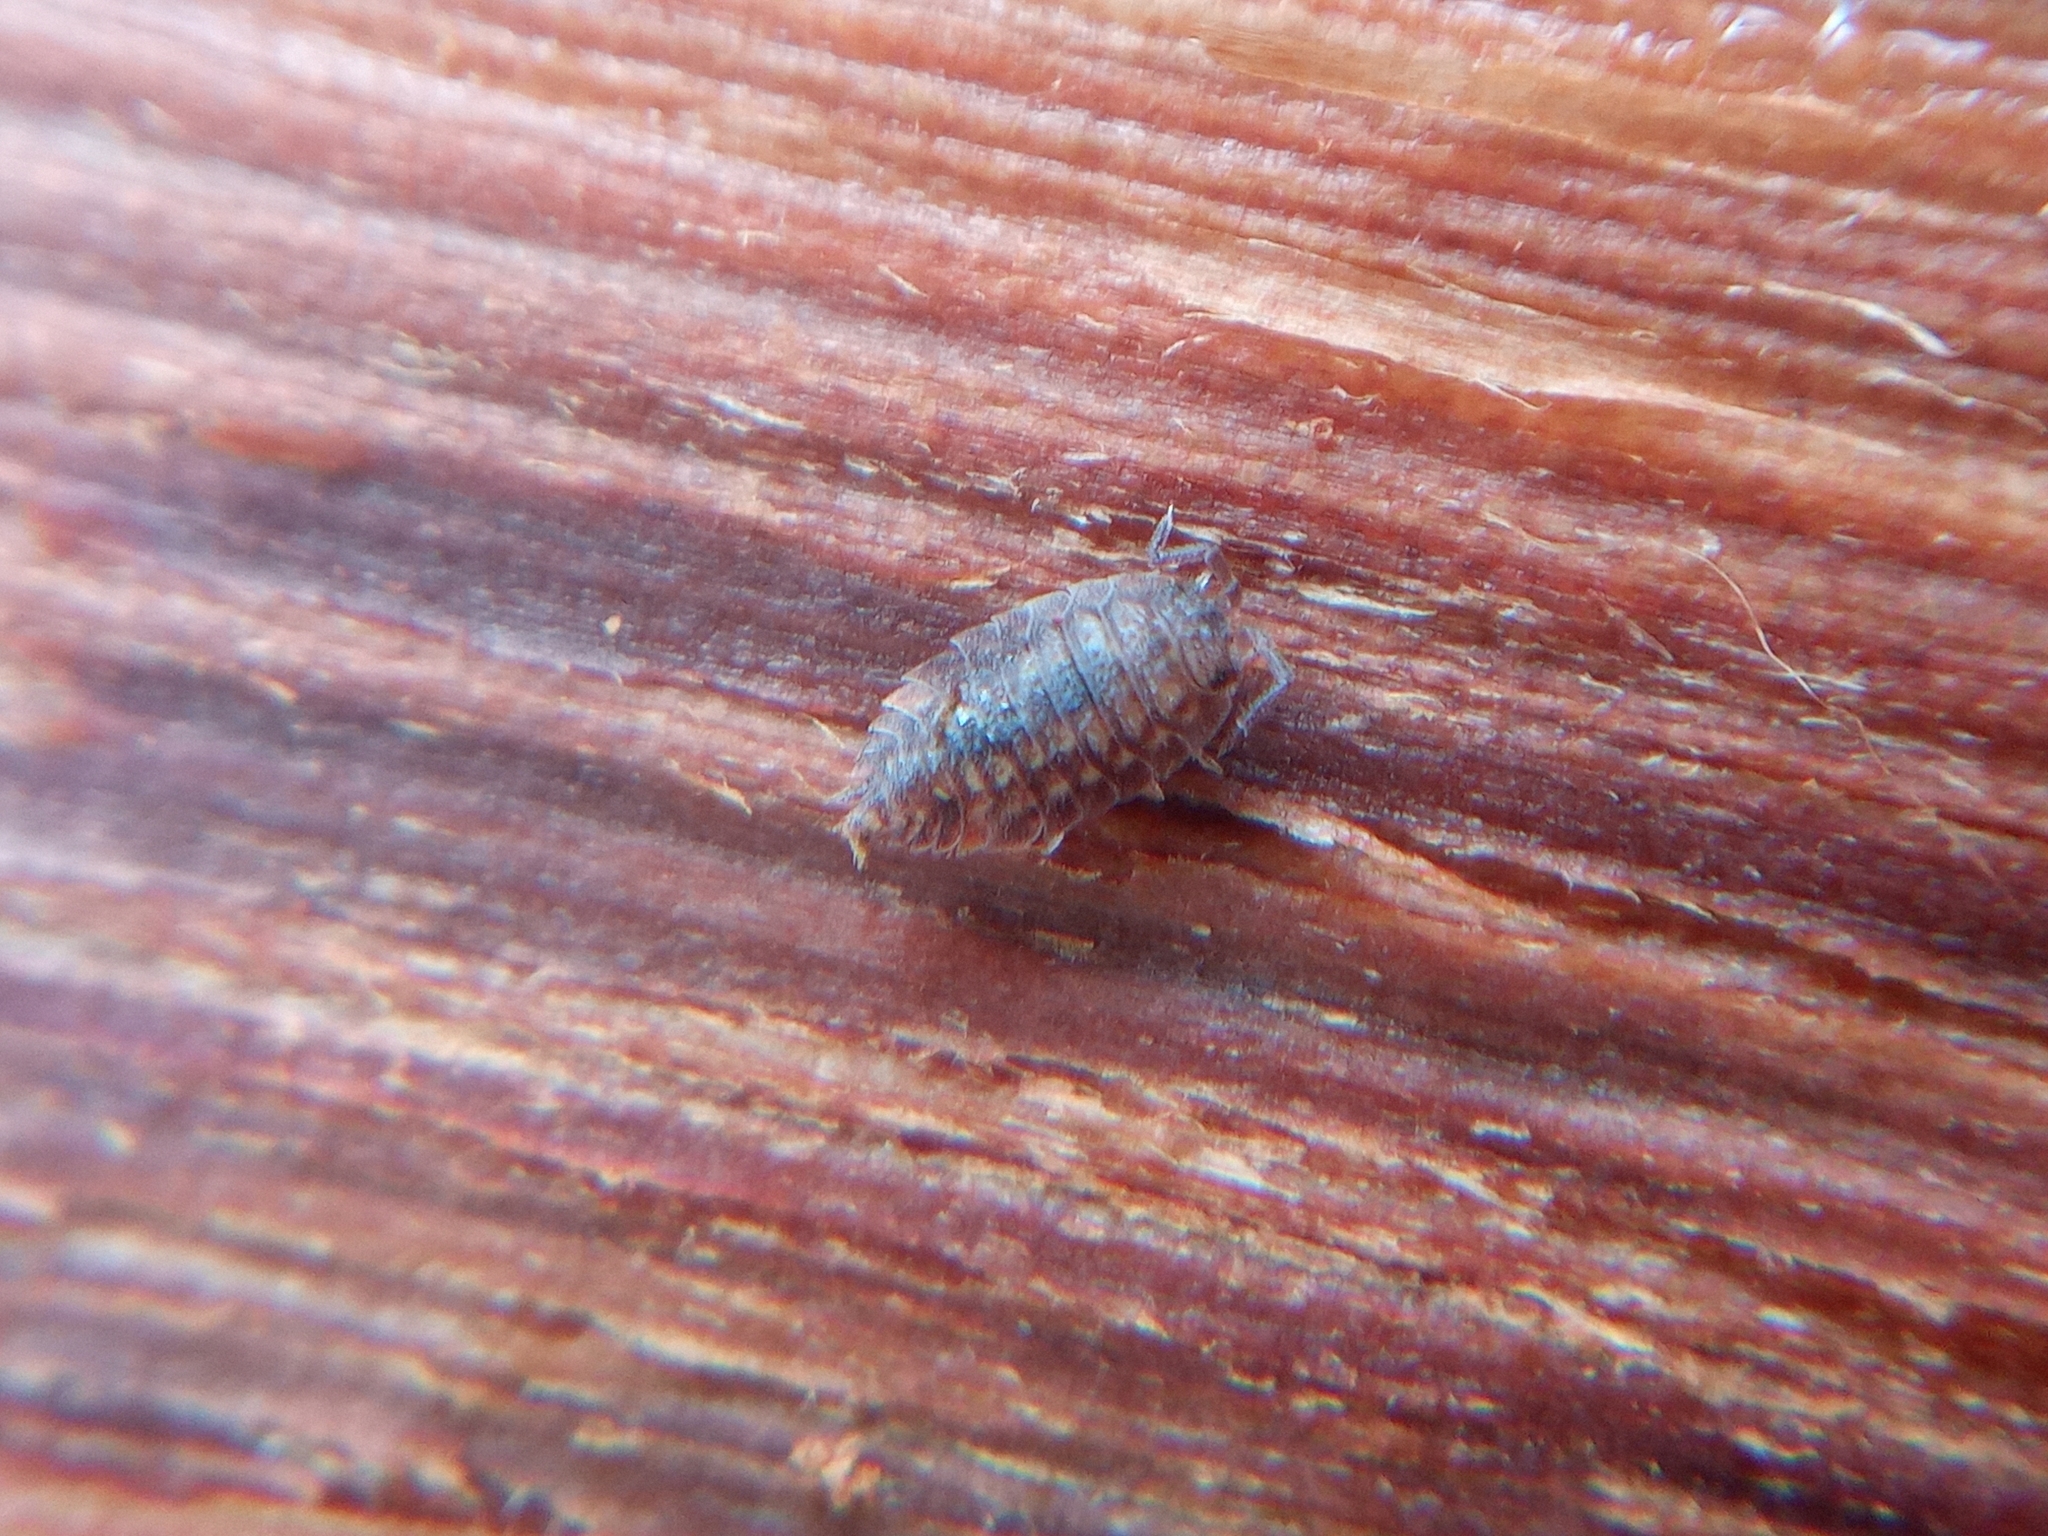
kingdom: Animalia
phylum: Arthropoda
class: Malacostraca
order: Isopoda
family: Oniscidae
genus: Oniscus
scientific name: Oniscus asellus
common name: Common shiny woodlouse
